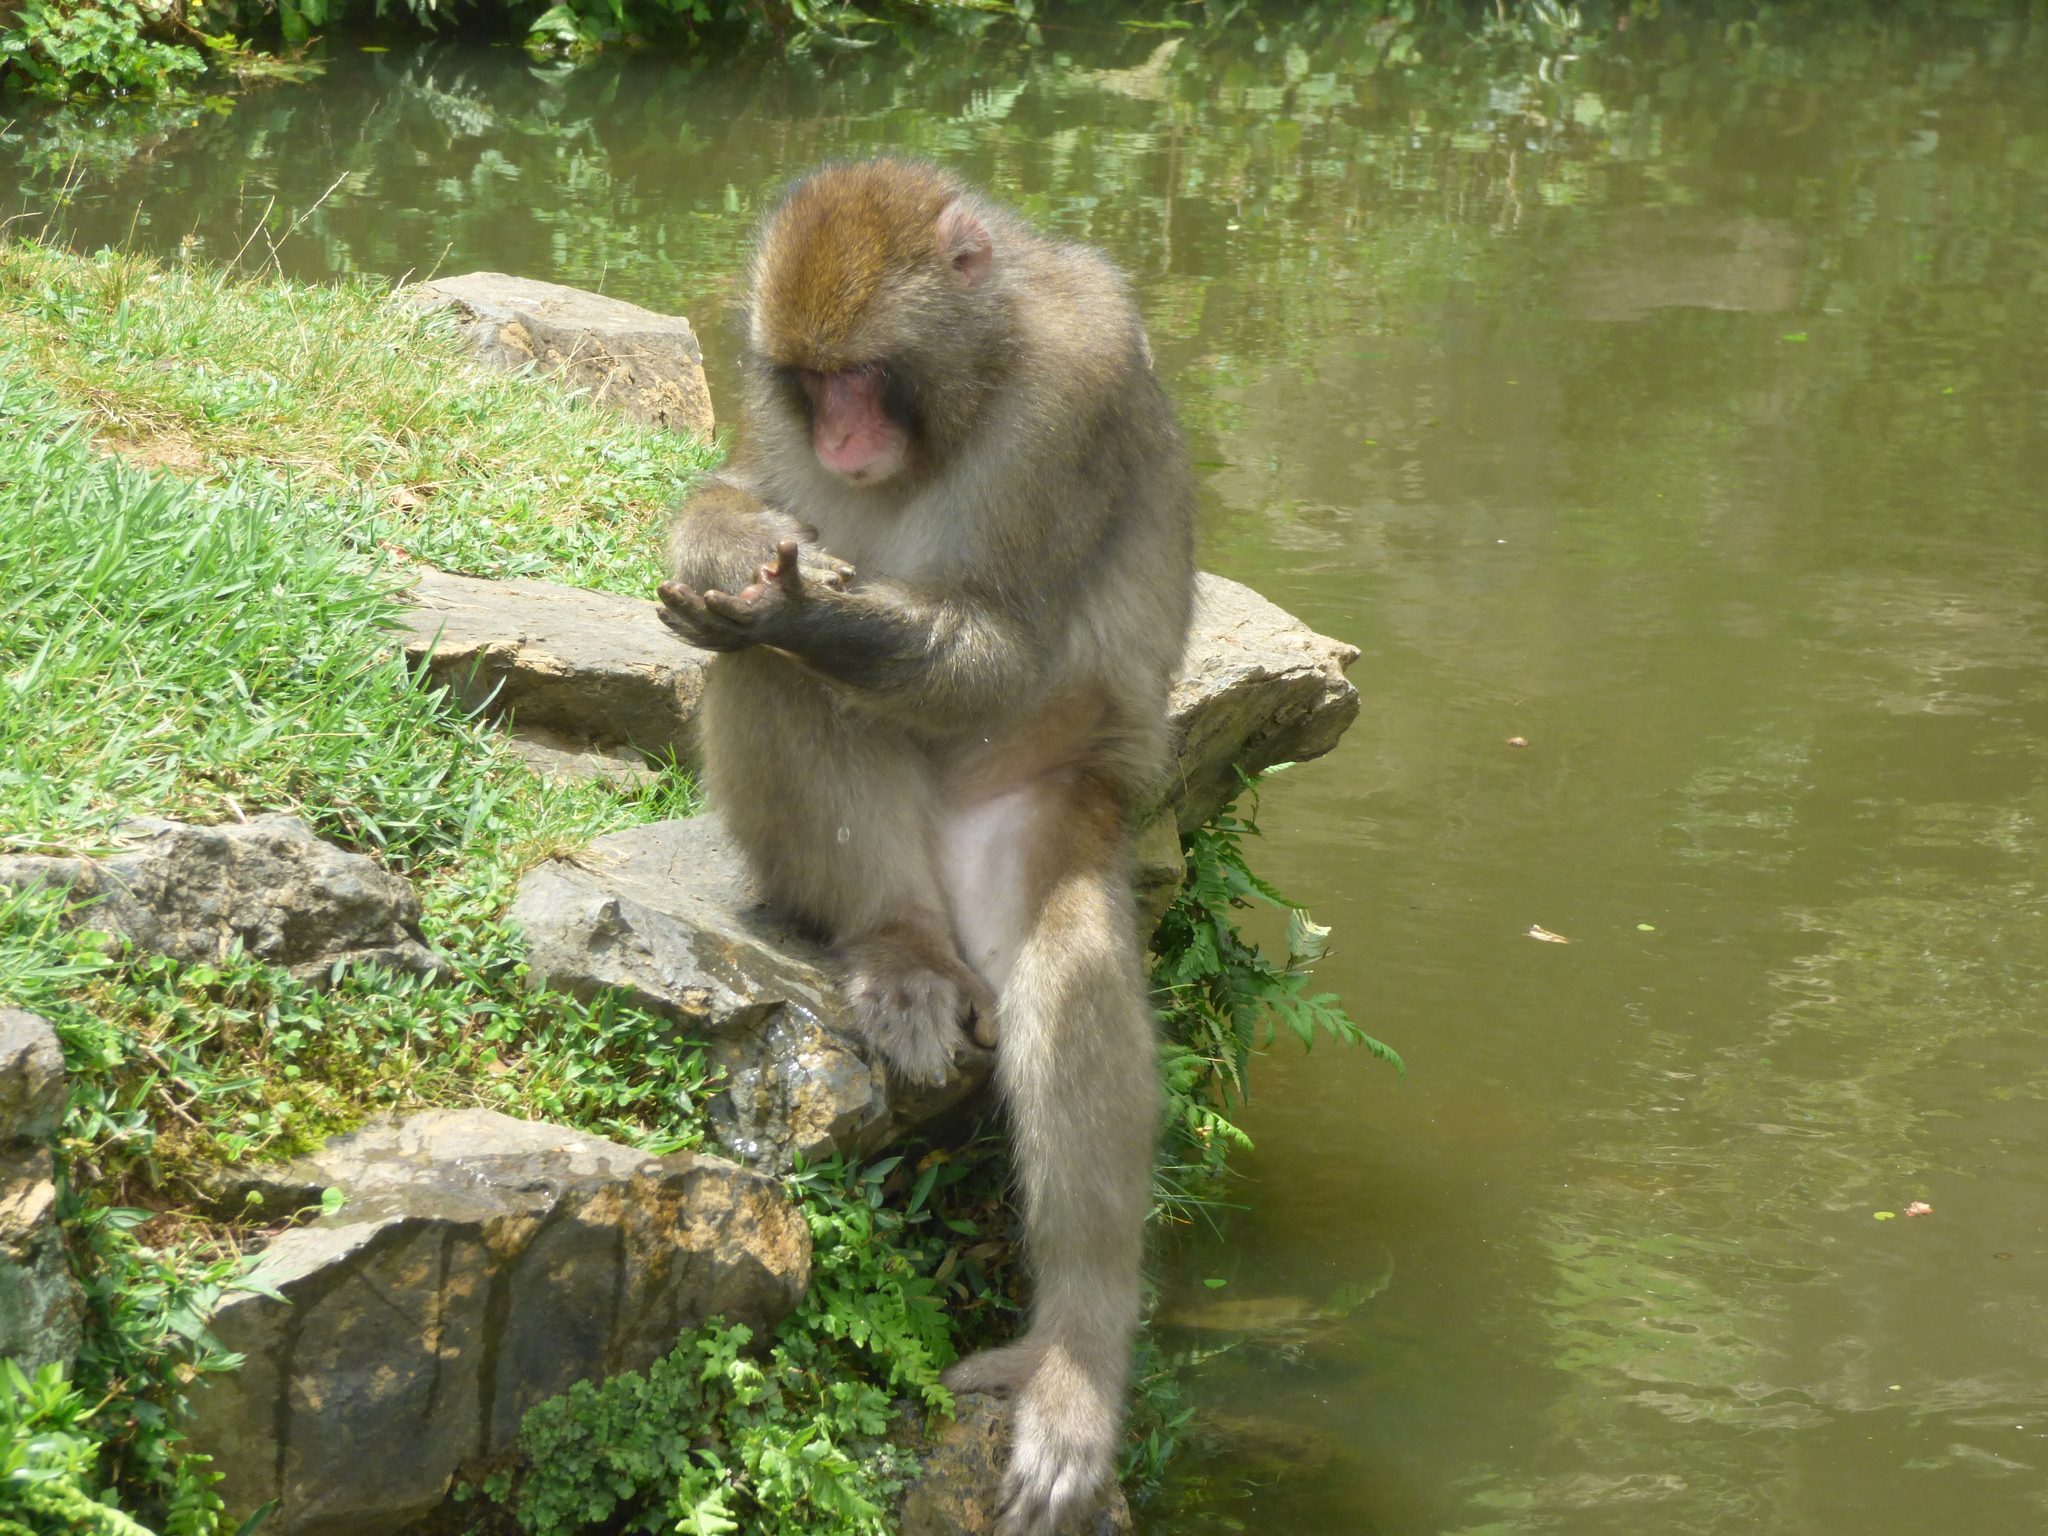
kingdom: Animalia
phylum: Chordata
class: Mammalia
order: Primates
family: Cercopithecidae
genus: Macaca
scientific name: Macaca fuscata
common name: Japanese macaque
